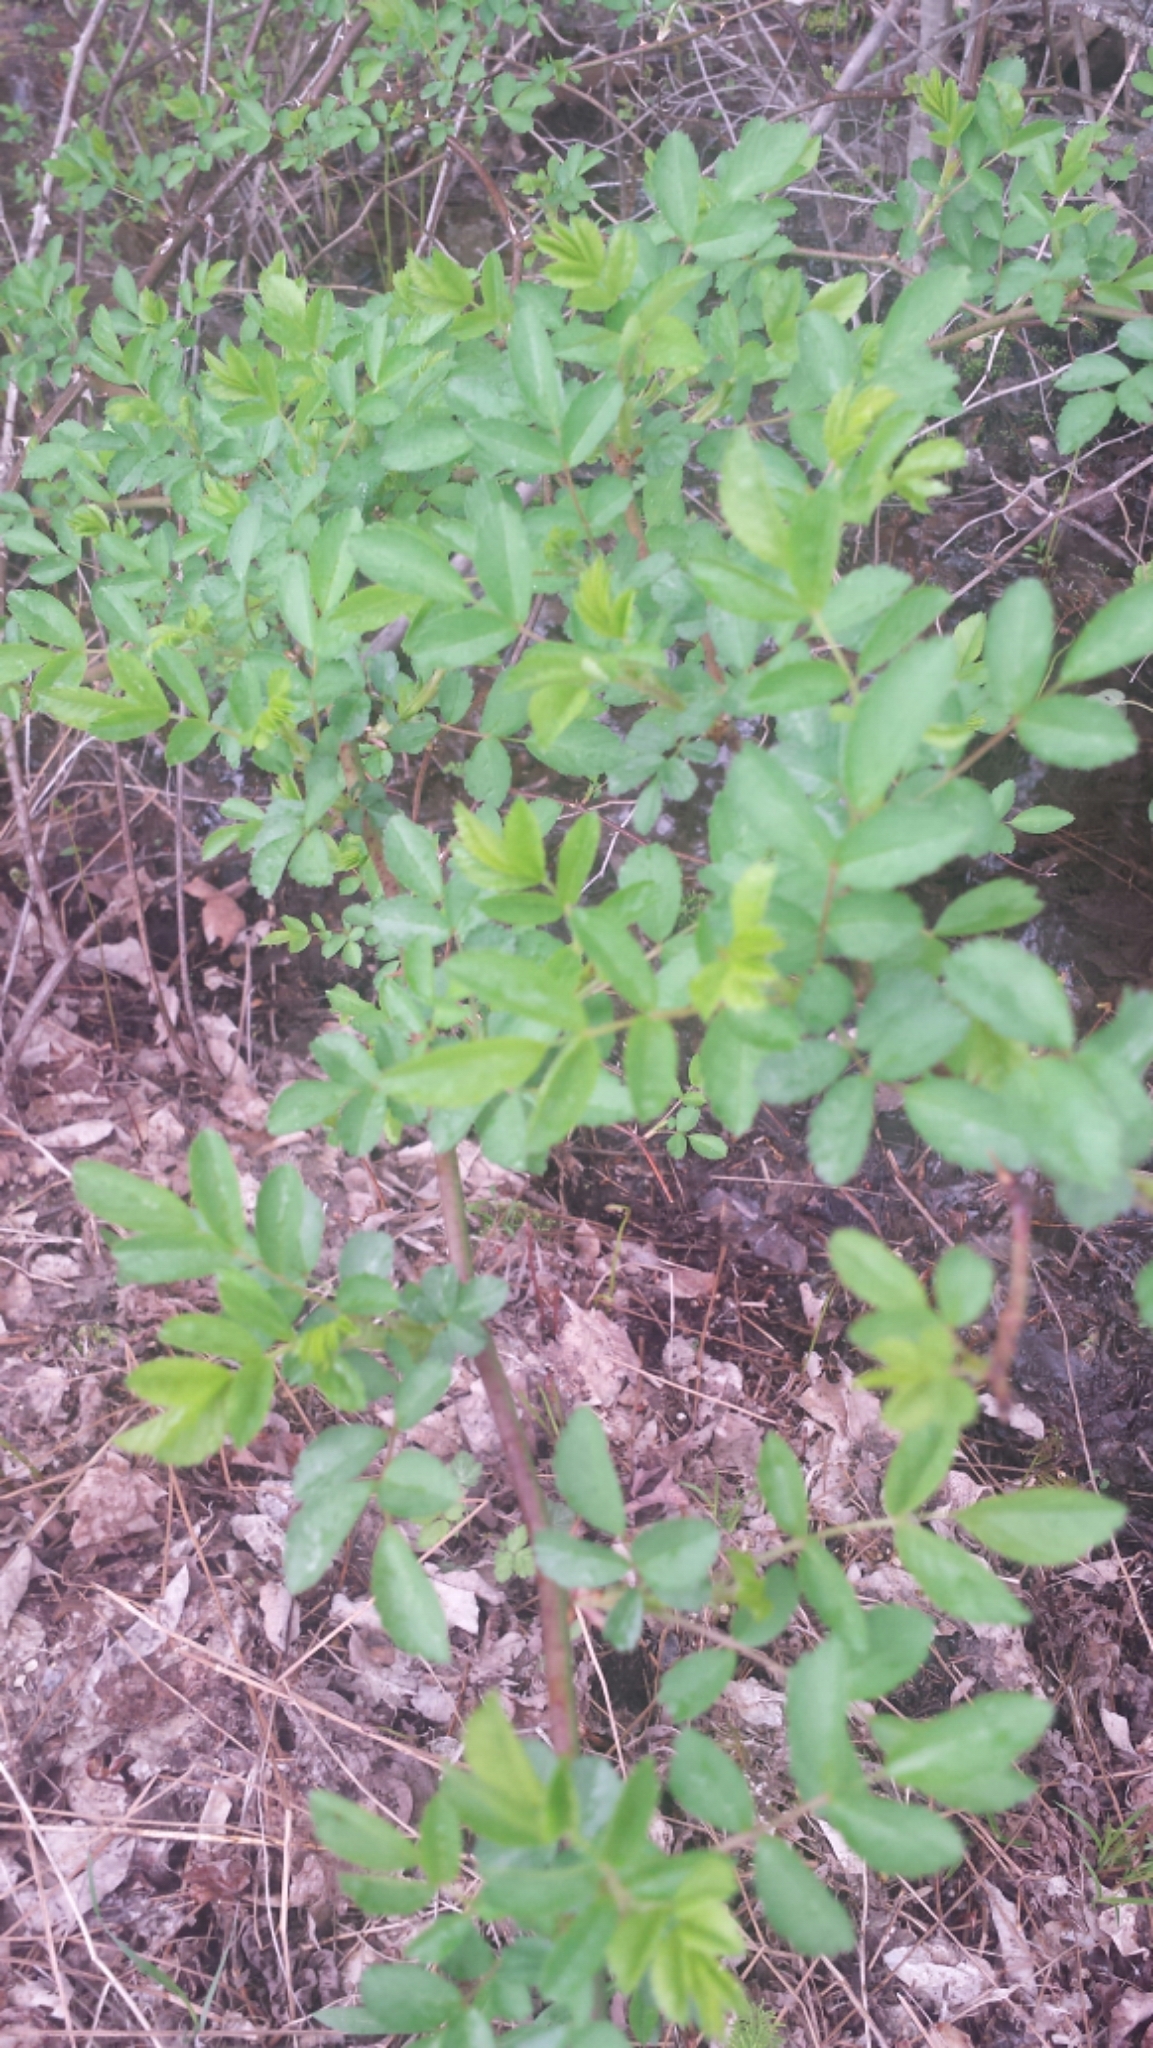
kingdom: Plantae
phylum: Tracheophyta
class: Magnoliopsida
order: Rosales
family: Rosaceae
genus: Rosa
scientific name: Rosa multiflora
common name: Multiflora rose
